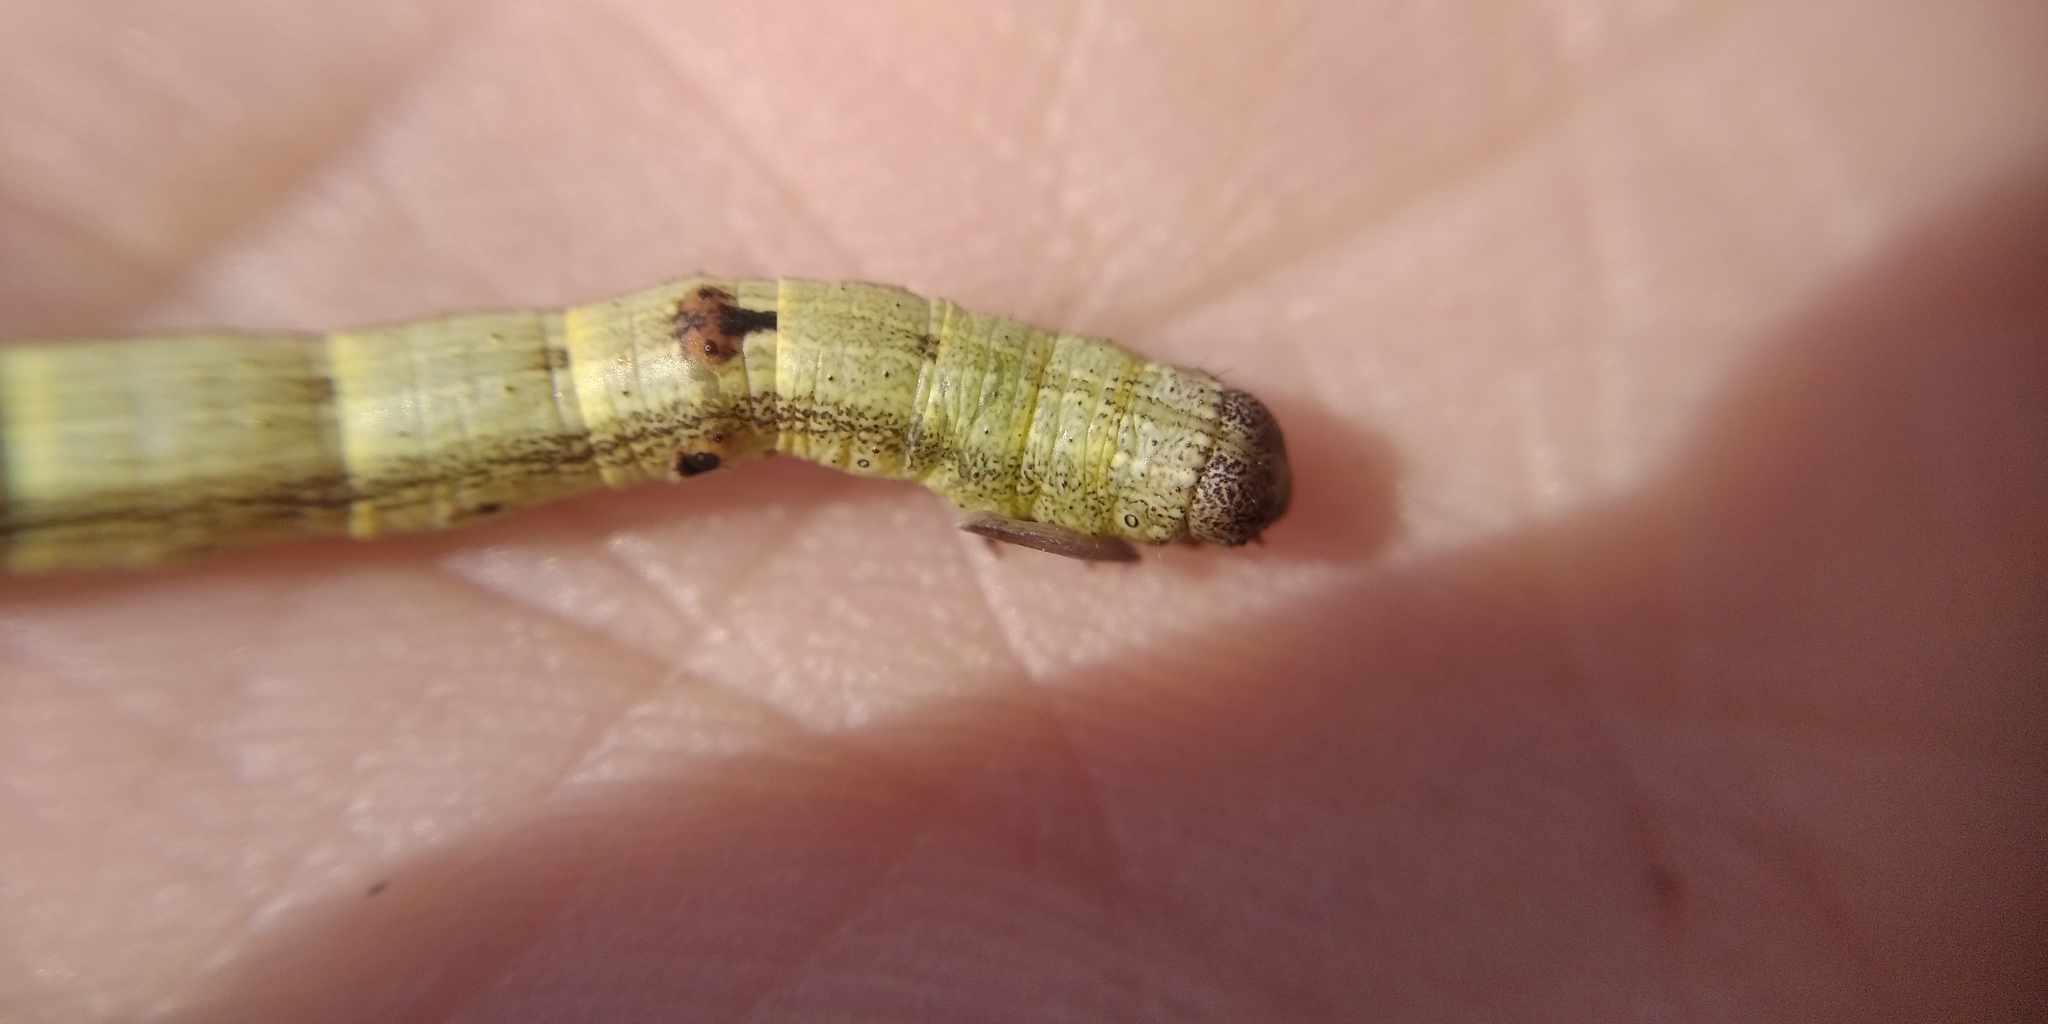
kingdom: Animalia
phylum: Arthropoda
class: Insecta
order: Lepidoptera
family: Geometridae
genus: Ascotis
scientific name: Ascotis selenaria
